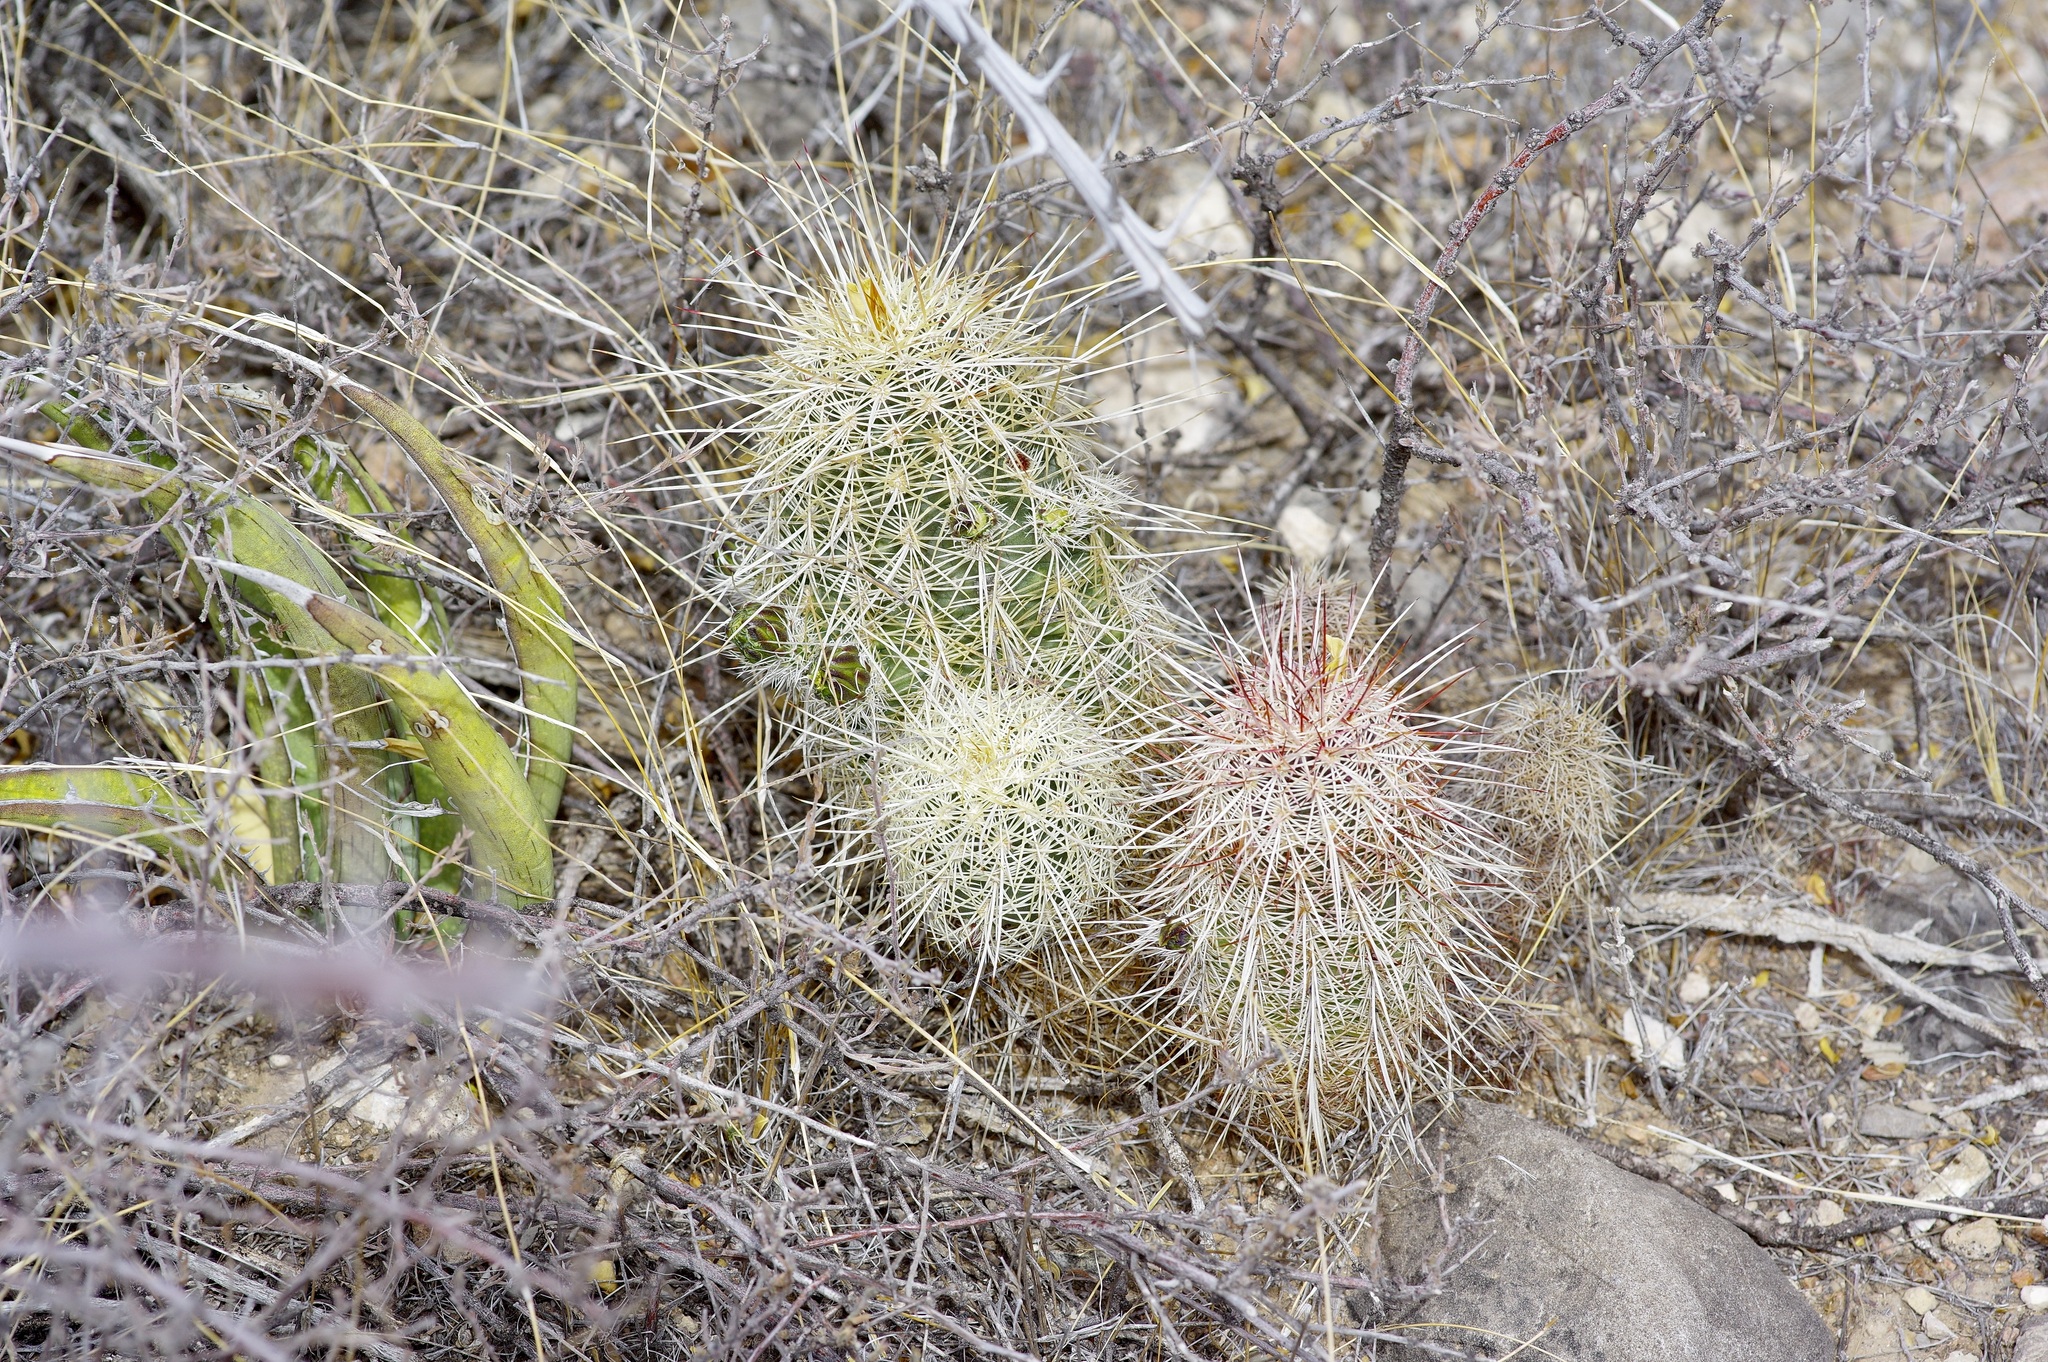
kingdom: Plantae
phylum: Tracheophyta
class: Magnoliopsida
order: Caryophyllales
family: Cactaceae
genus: Echinocereus
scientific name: Echinocereus viridiflorus
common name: Nylon hedgehog cactus
